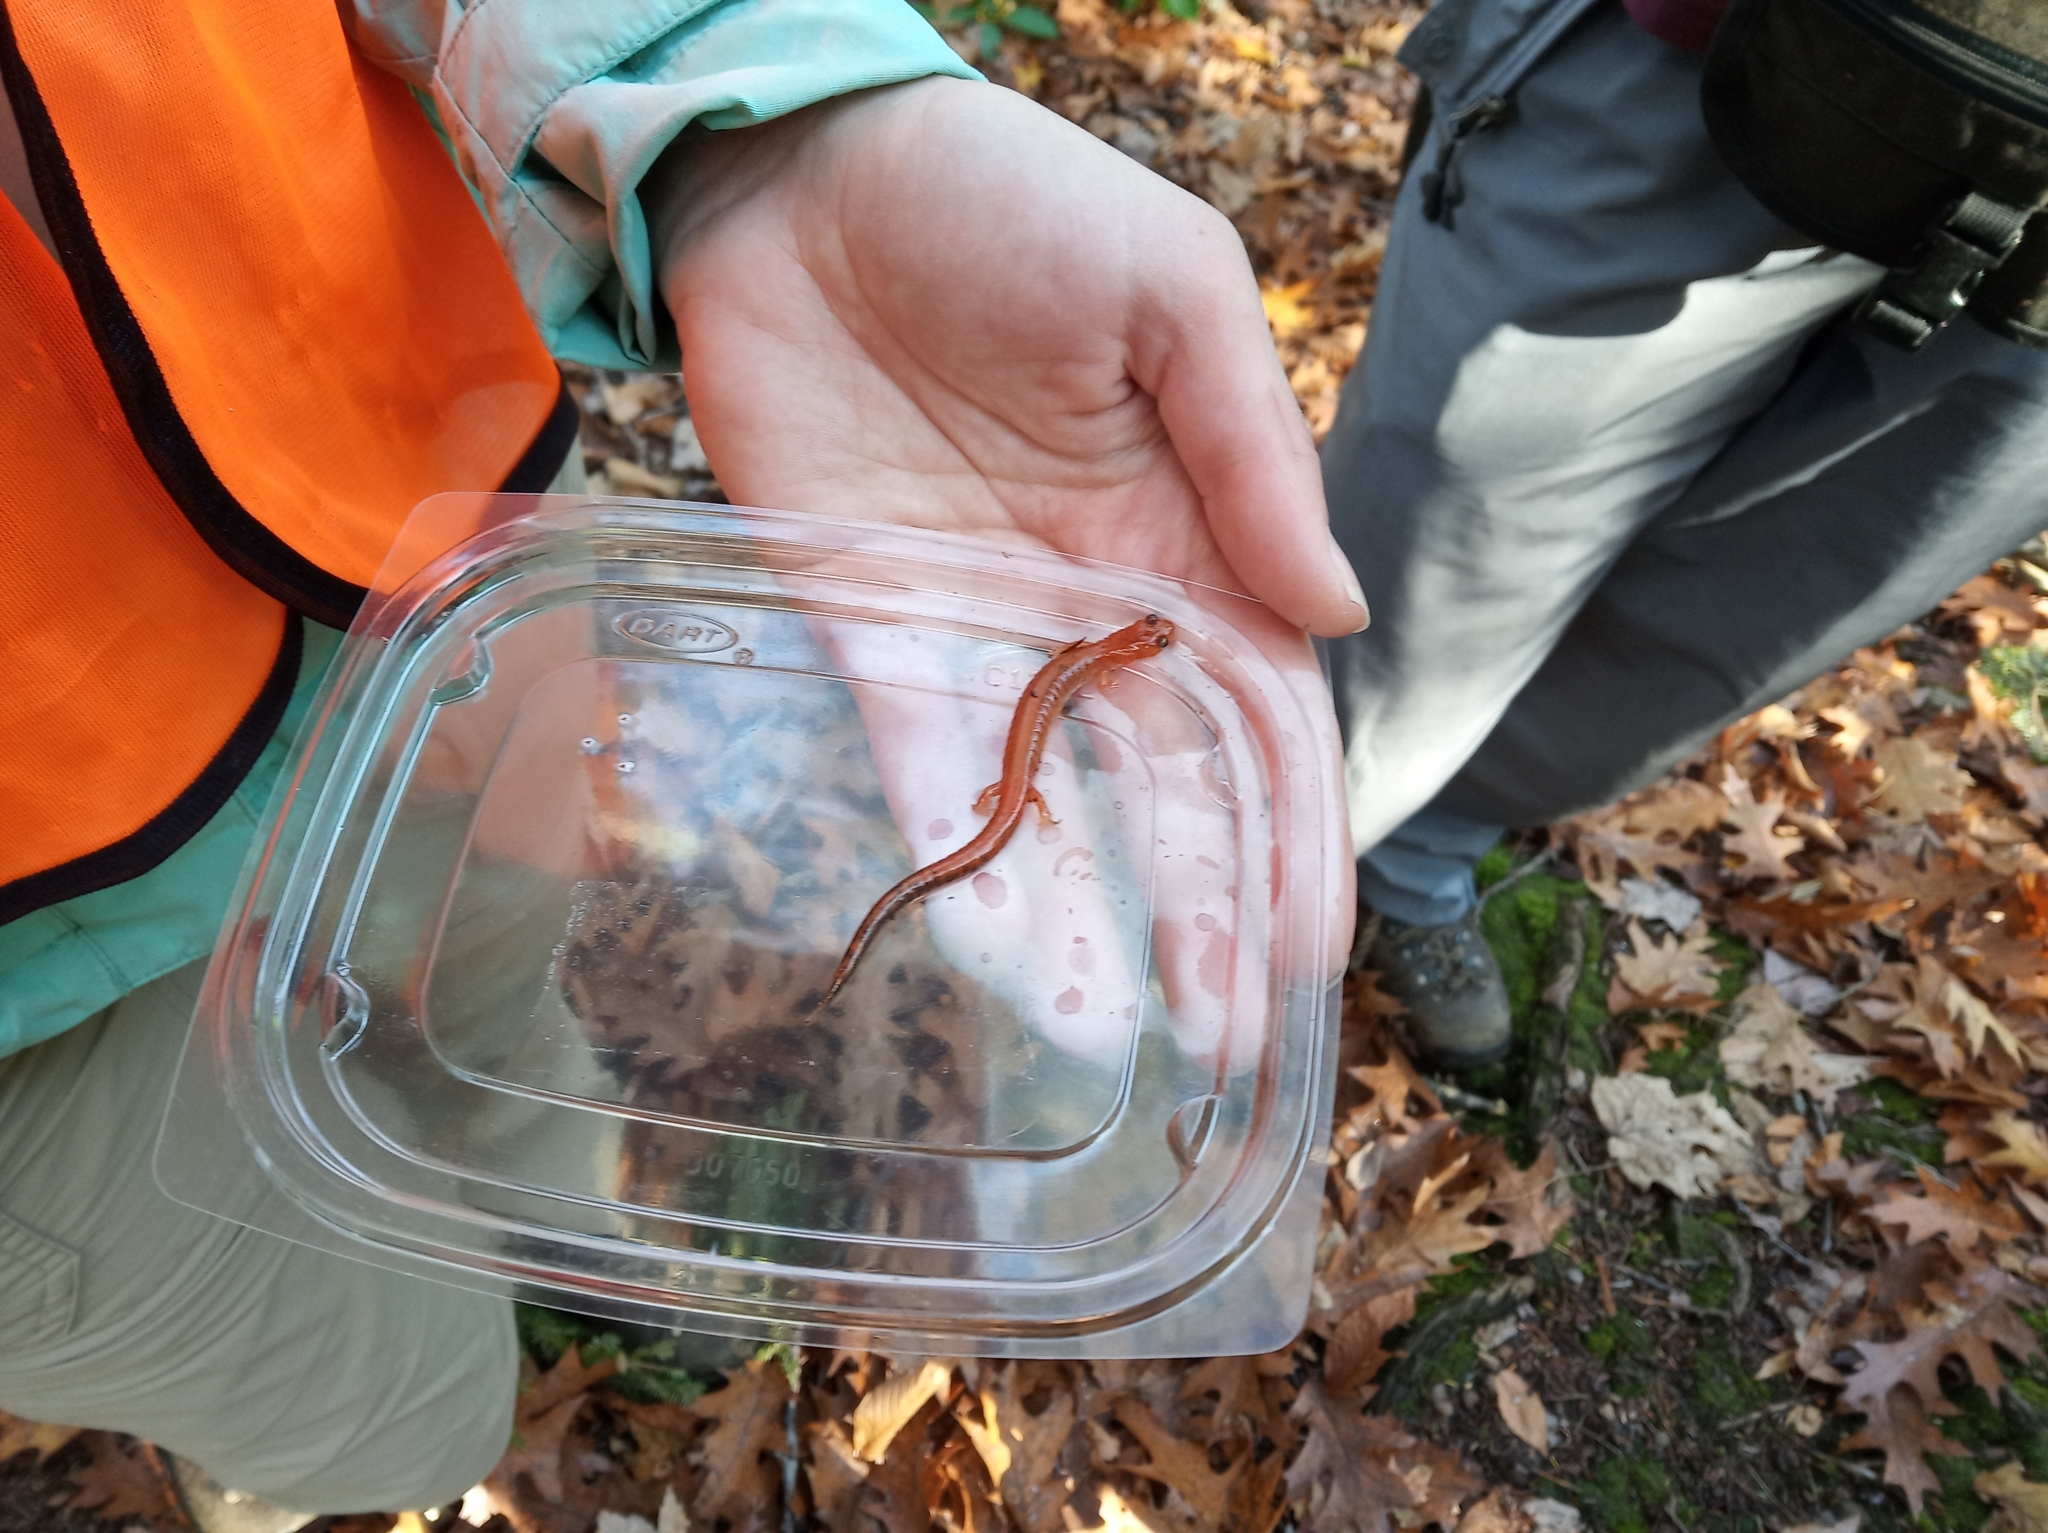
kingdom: Animalia
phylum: Chordata
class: Amphibia
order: Caudata
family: Plethodontidae
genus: Plethodon
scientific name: Plethodon cinereus
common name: Redback salamander
